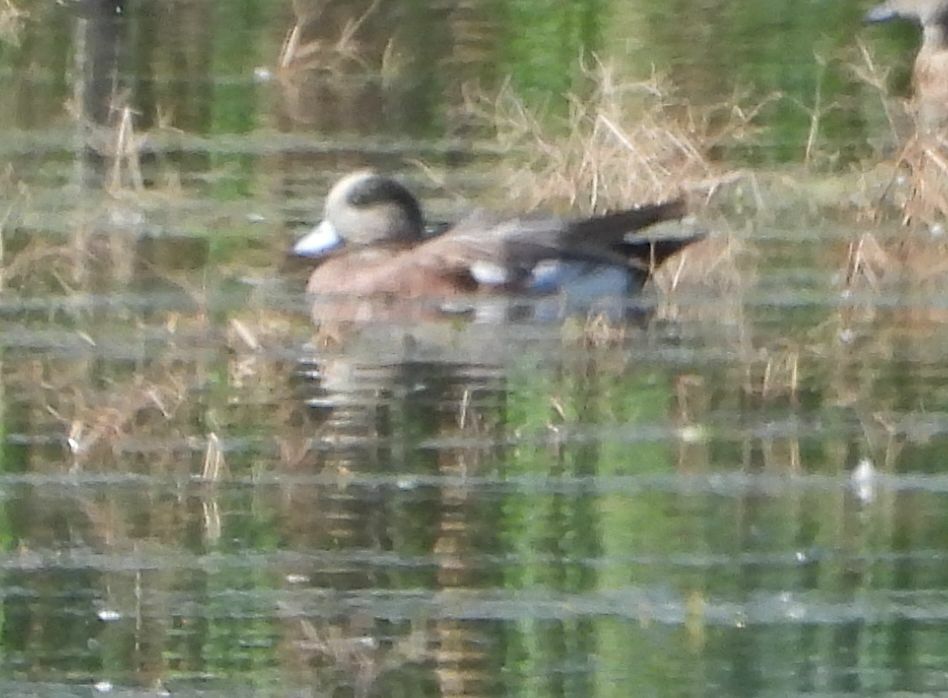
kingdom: Animalia
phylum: Chordata
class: Aves
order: Anseriformes
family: Anatidae
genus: Mareca
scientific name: Mareca americana
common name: American wigeon
